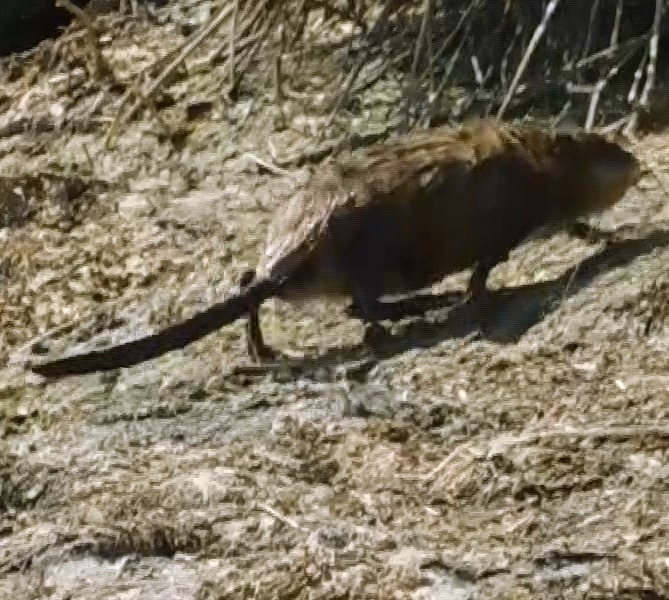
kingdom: Animalia
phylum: Chordata
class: Mammalia
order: Rodentia
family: Cricetidae
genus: Ondatra
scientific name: Ondatra zibethicus
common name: Muskrat
